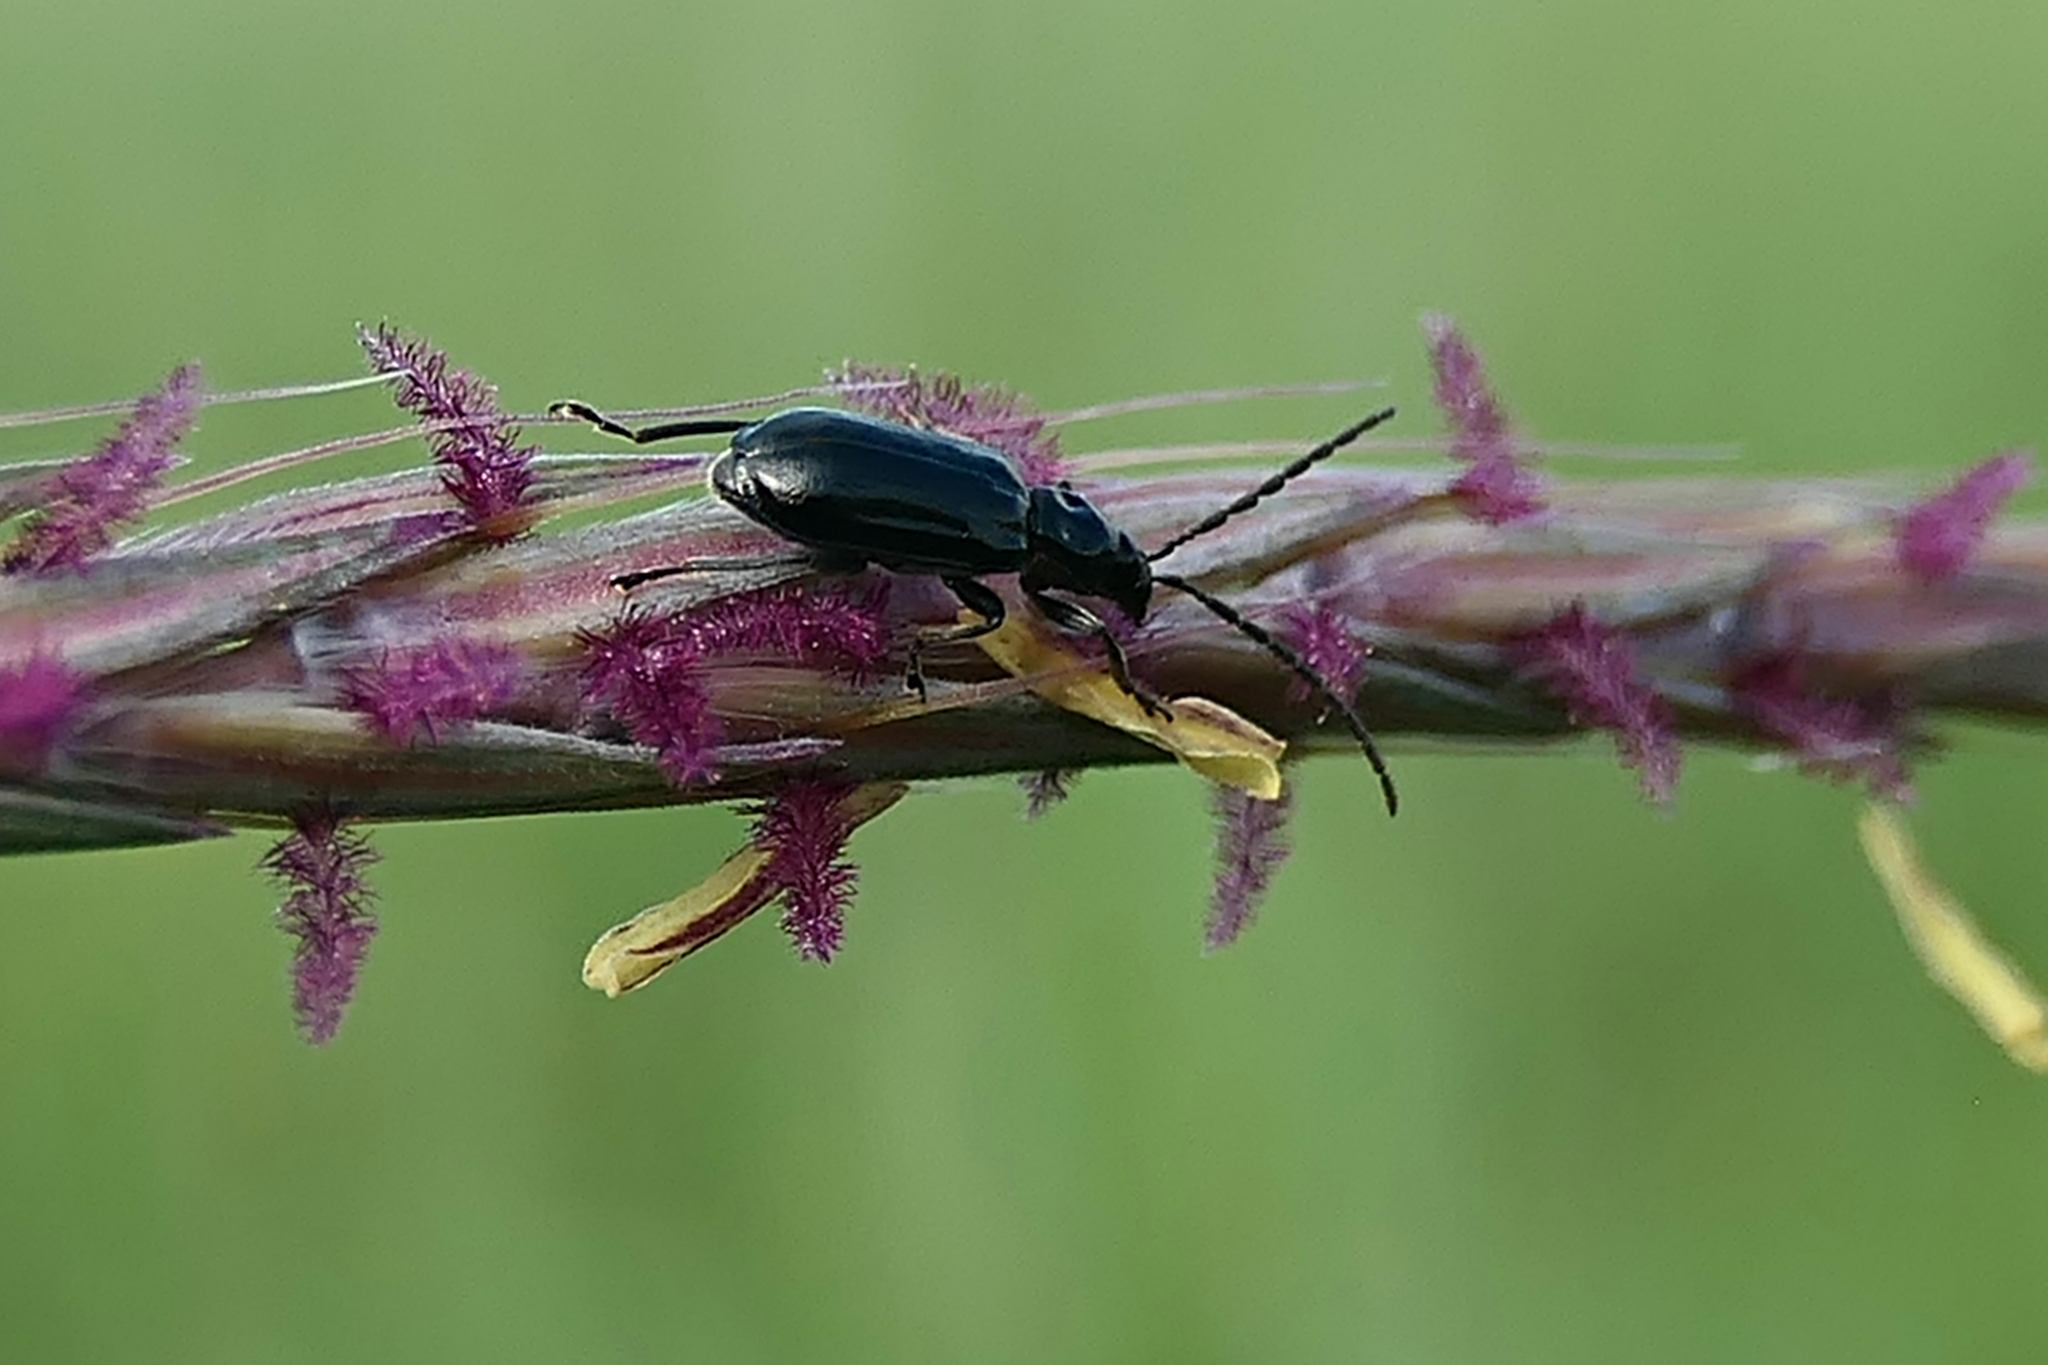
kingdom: Animalia
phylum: Arthropoda
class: Insecta
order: Coleoptera
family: Chrysomelidae
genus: Diabrotica
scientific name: Diabrotica cristata
